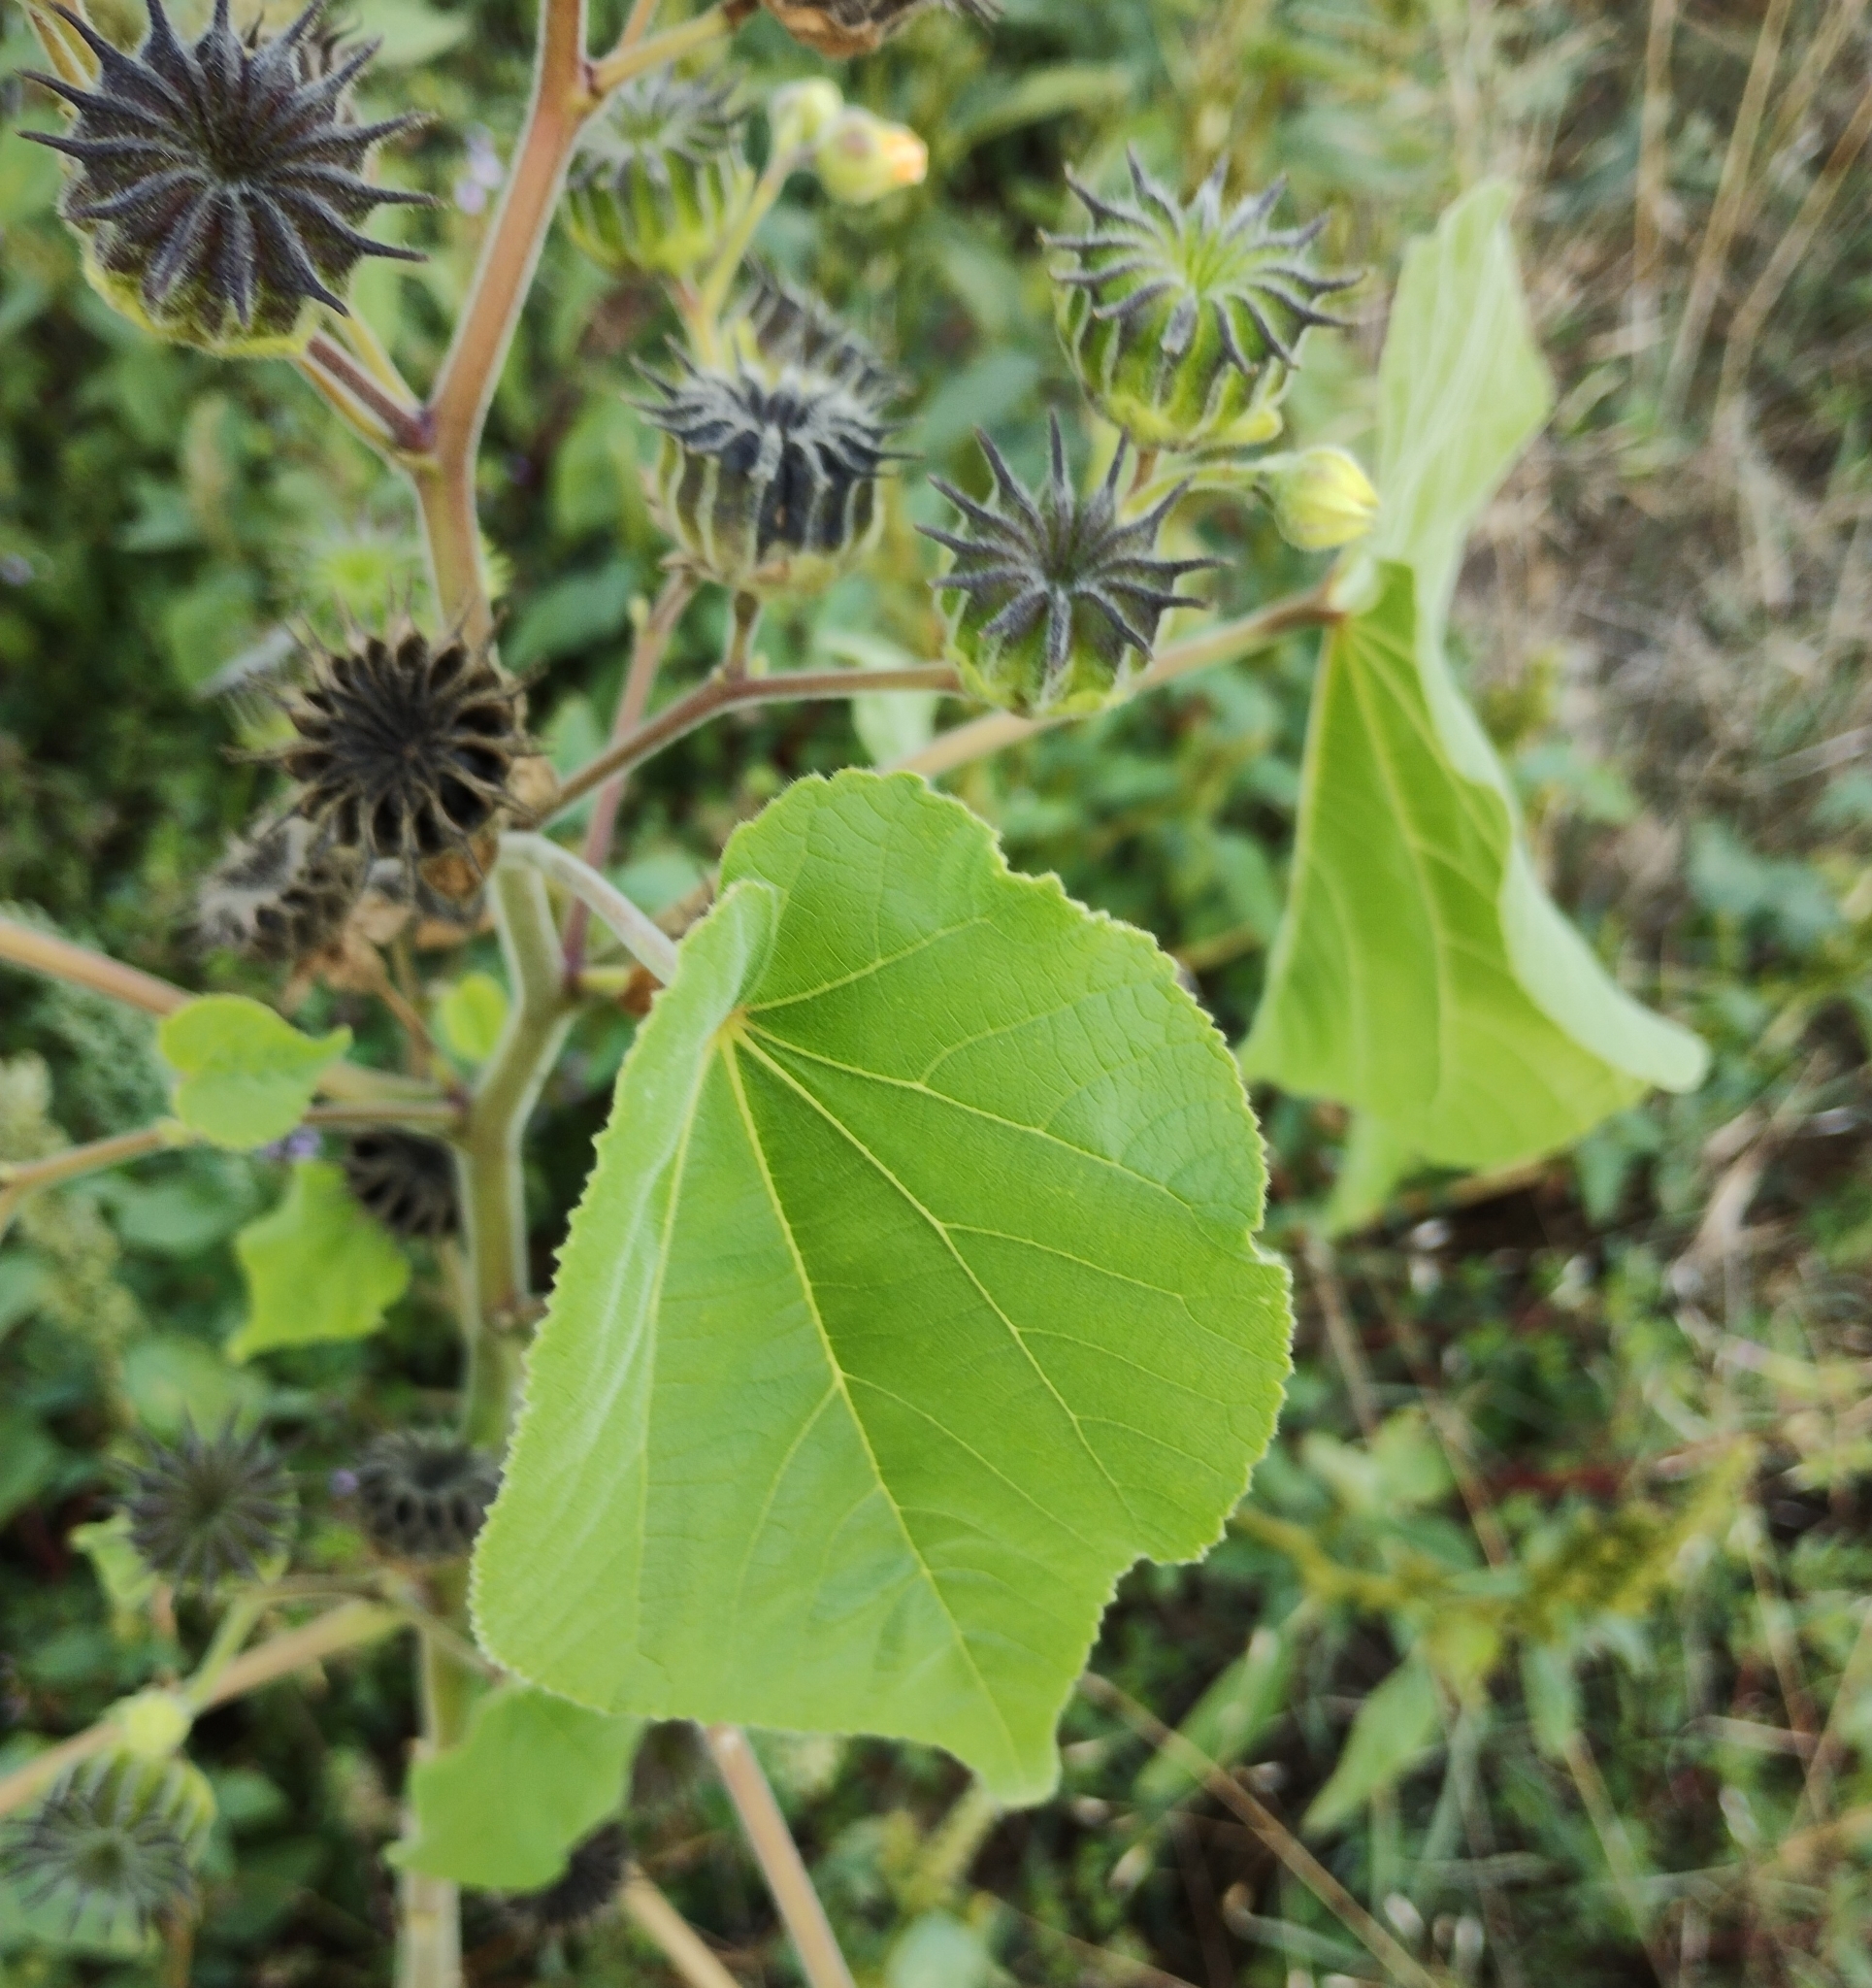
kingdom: Plantae
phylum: Tracheophyta
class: Magnoliopsida
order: Malvales
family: Malvaceae
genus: Abutilon
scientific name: Abutilon theophrasti
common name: Velvetleaf
